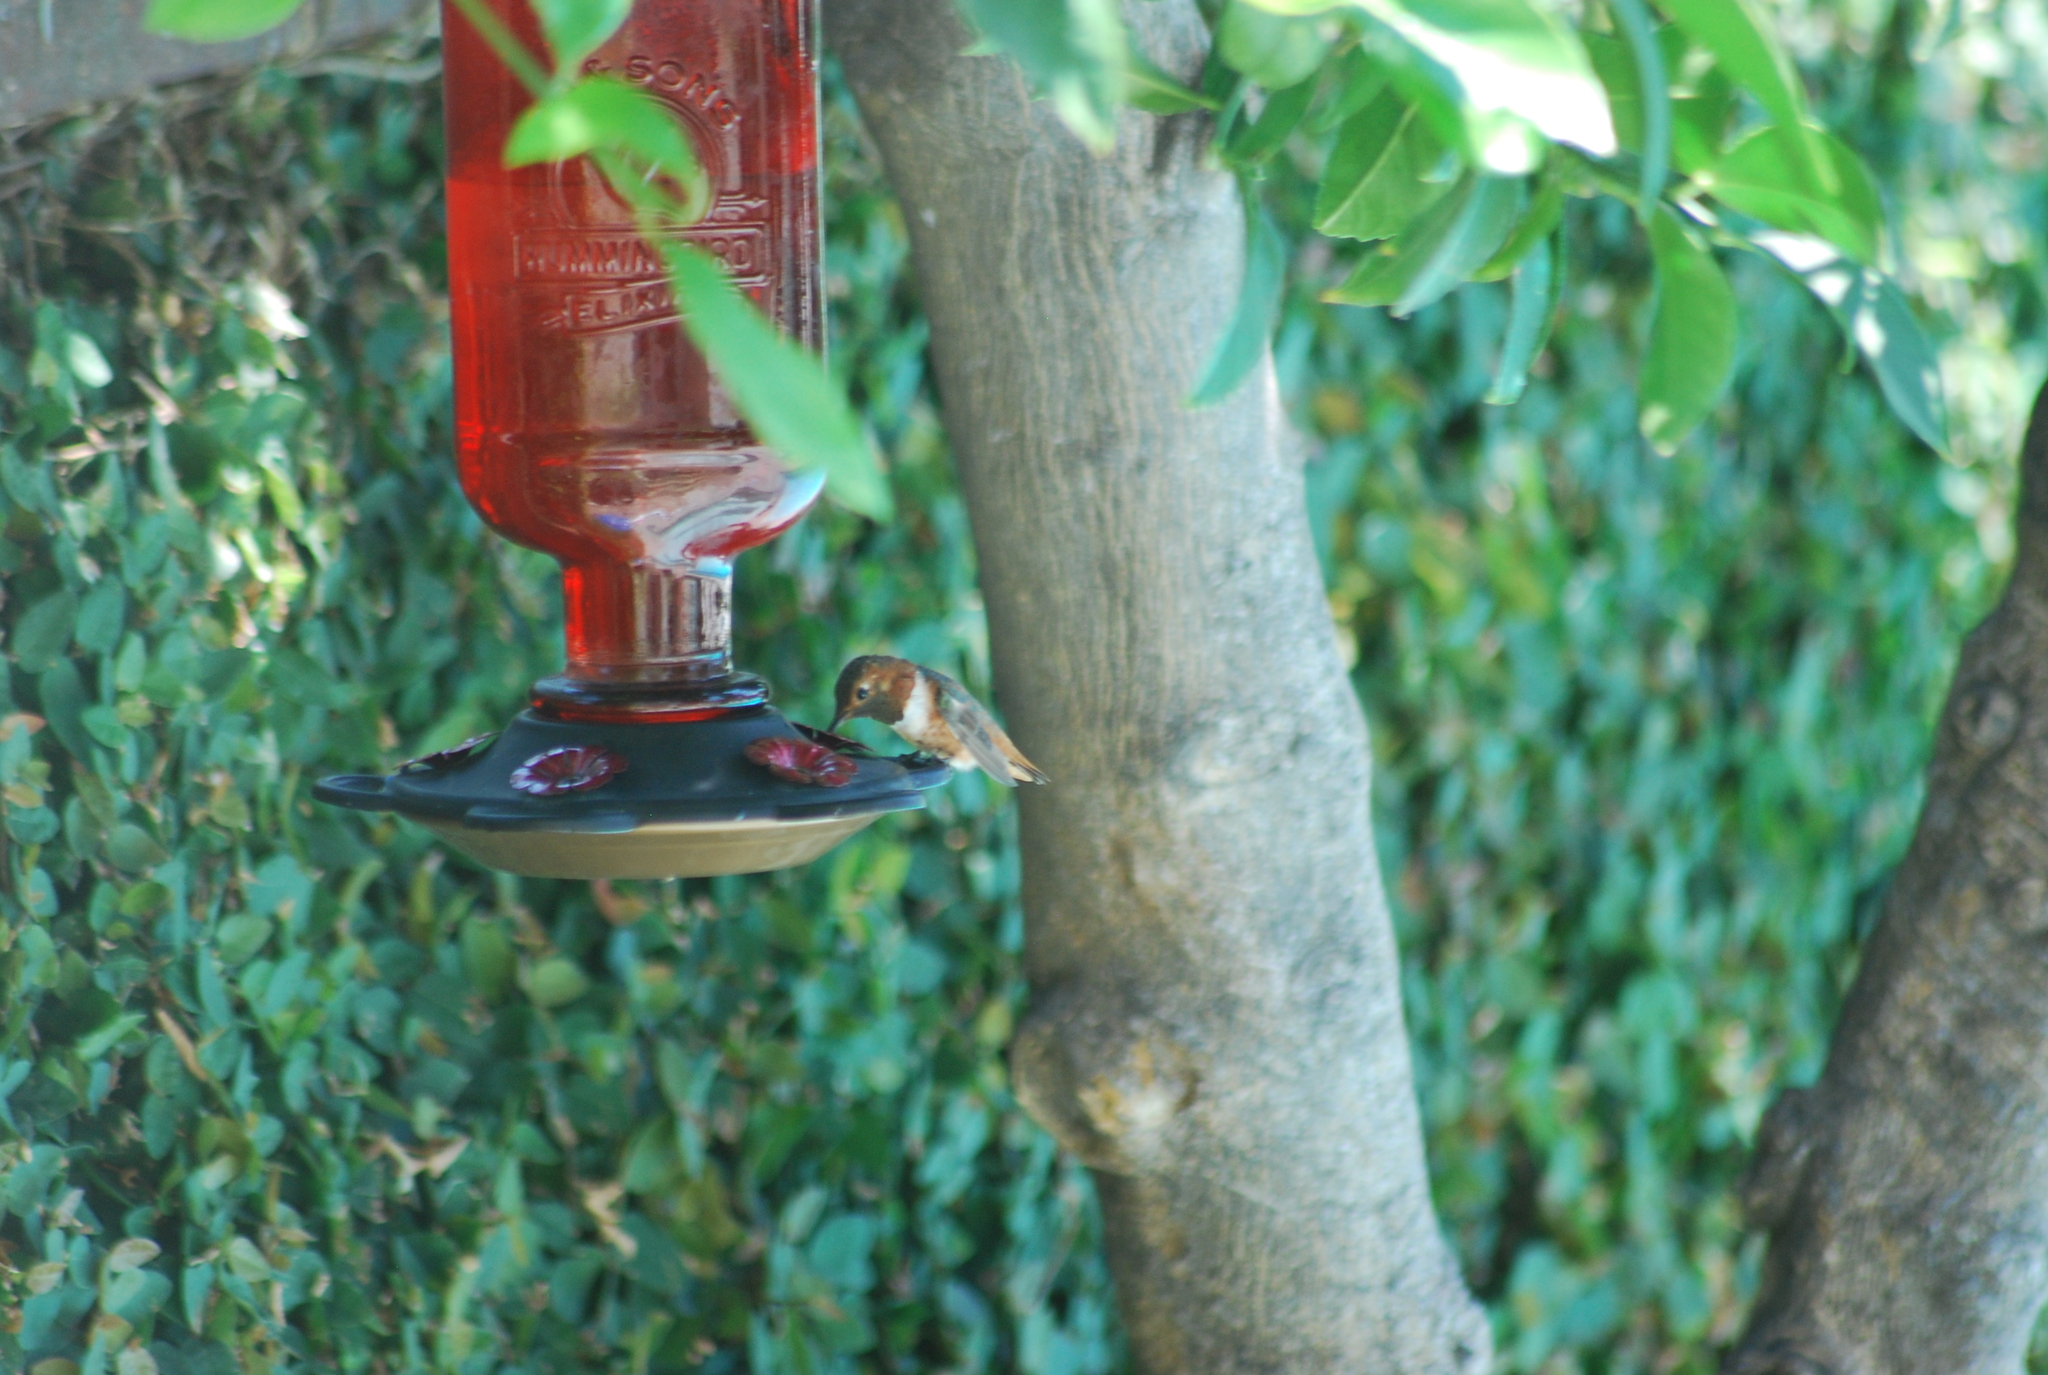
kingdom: Animalia
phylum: Chordata
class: Aves
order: Apodiformes
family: Trochilidae
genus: Selasphorus
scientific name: Selasphorus sasin
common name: Allen's hummingbird
